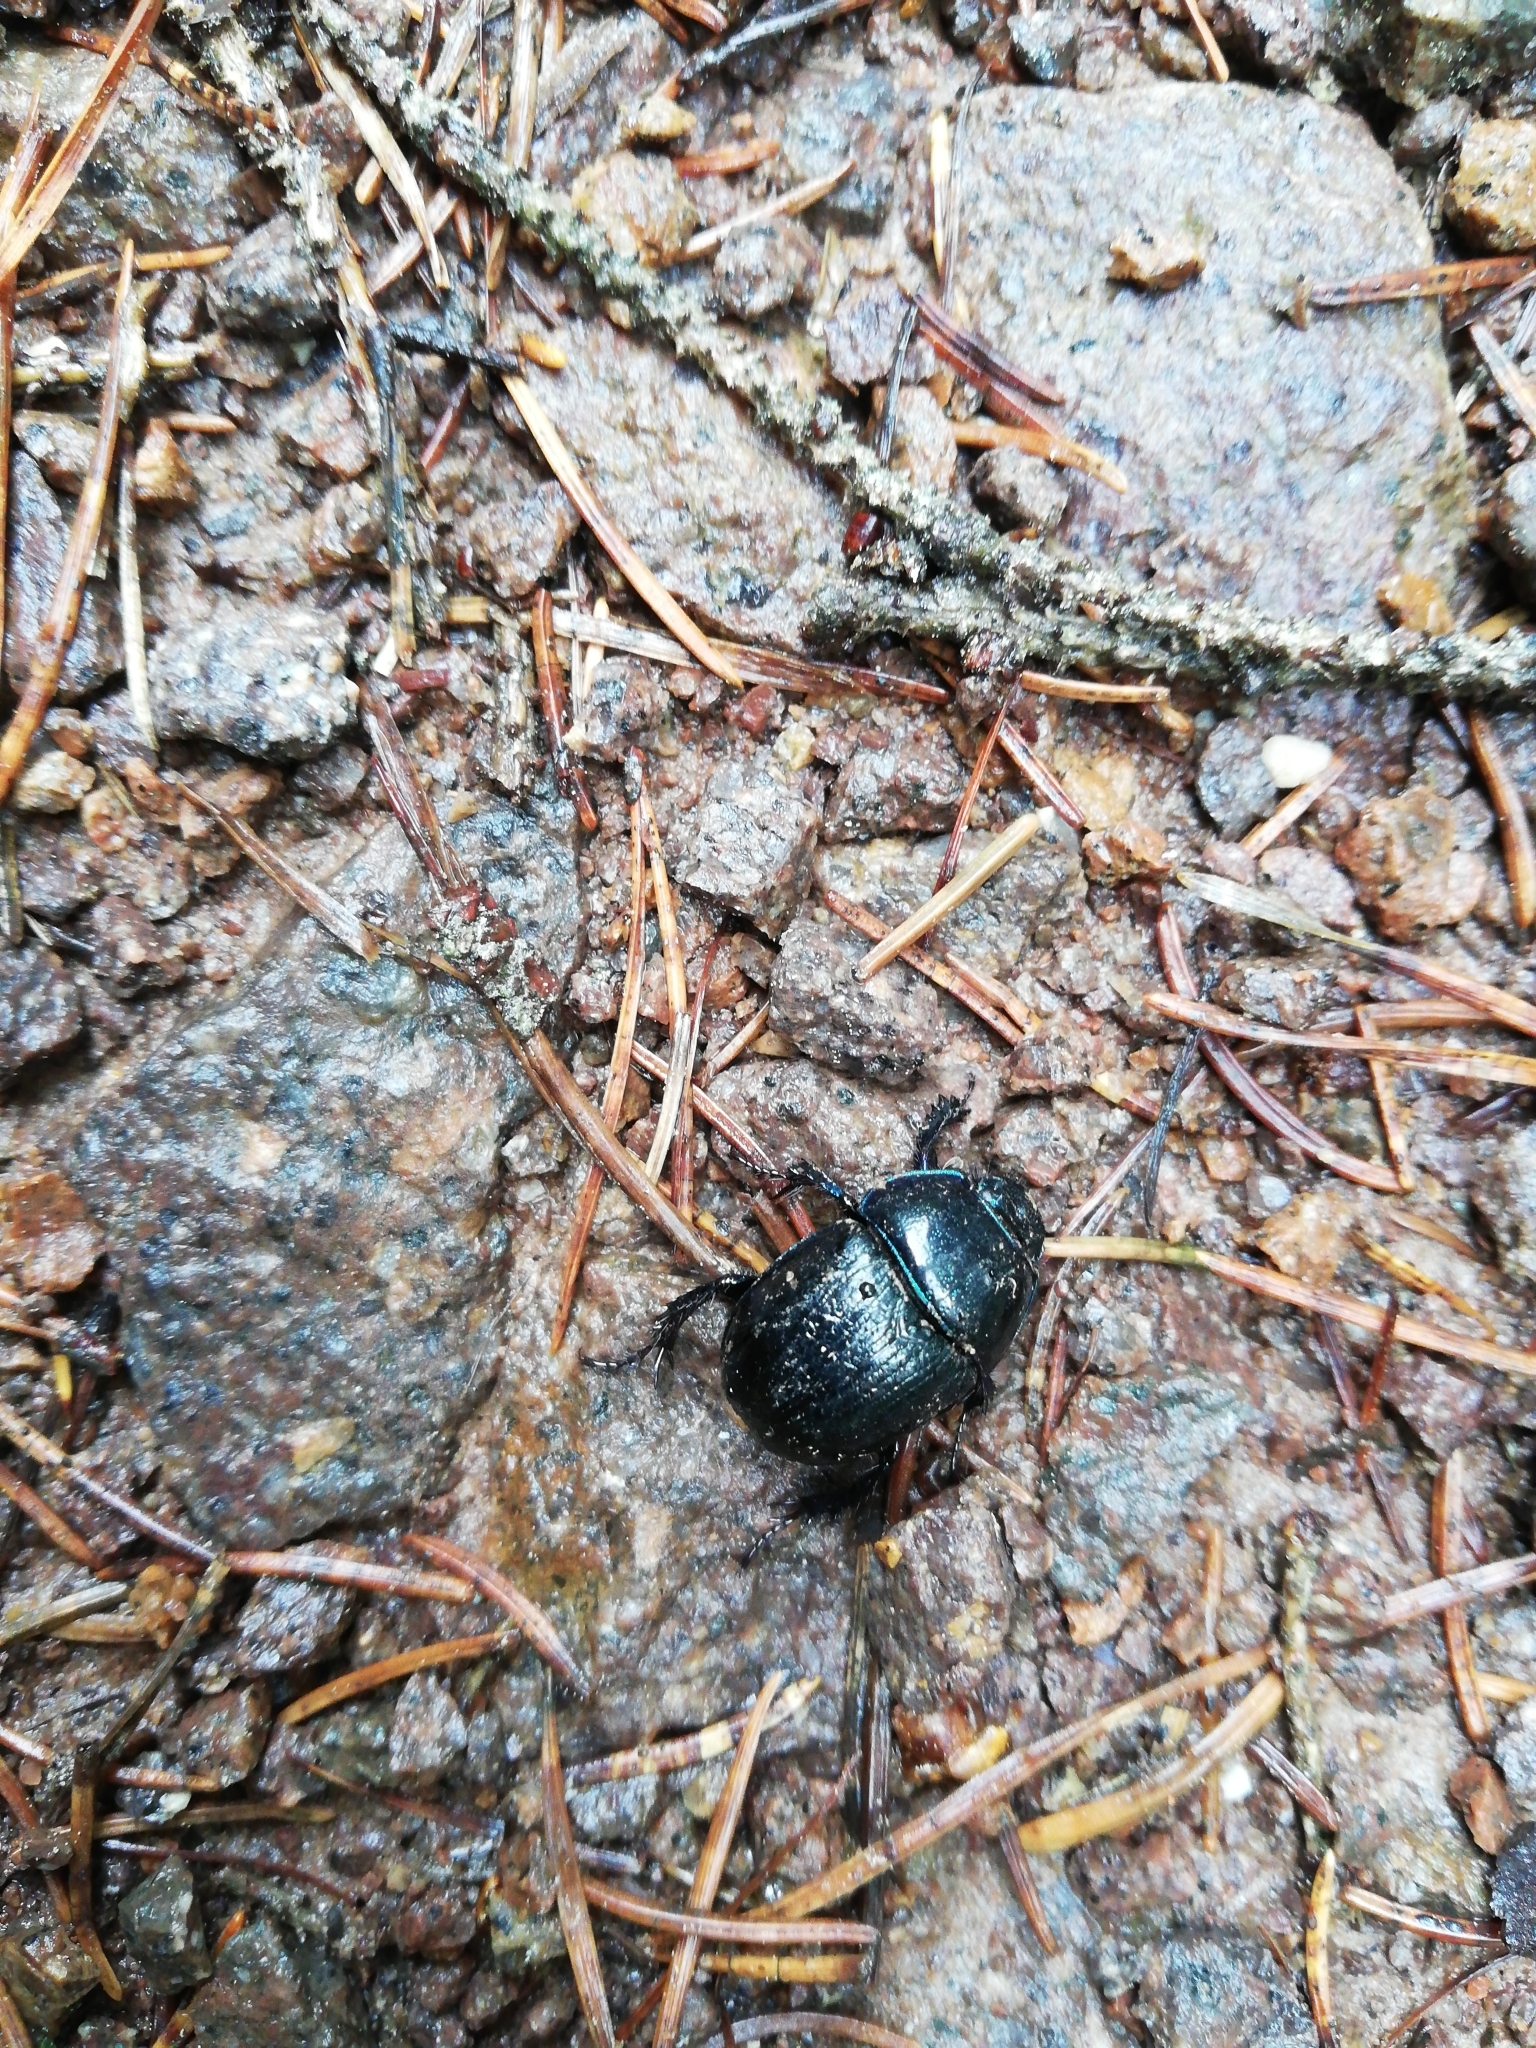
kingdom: Animalia
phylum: Arthropoda
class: Insecta
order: Coleoptera
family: Geotrupidae
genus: Anoplotrupes
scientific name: Anoplotrupes stercorosus
